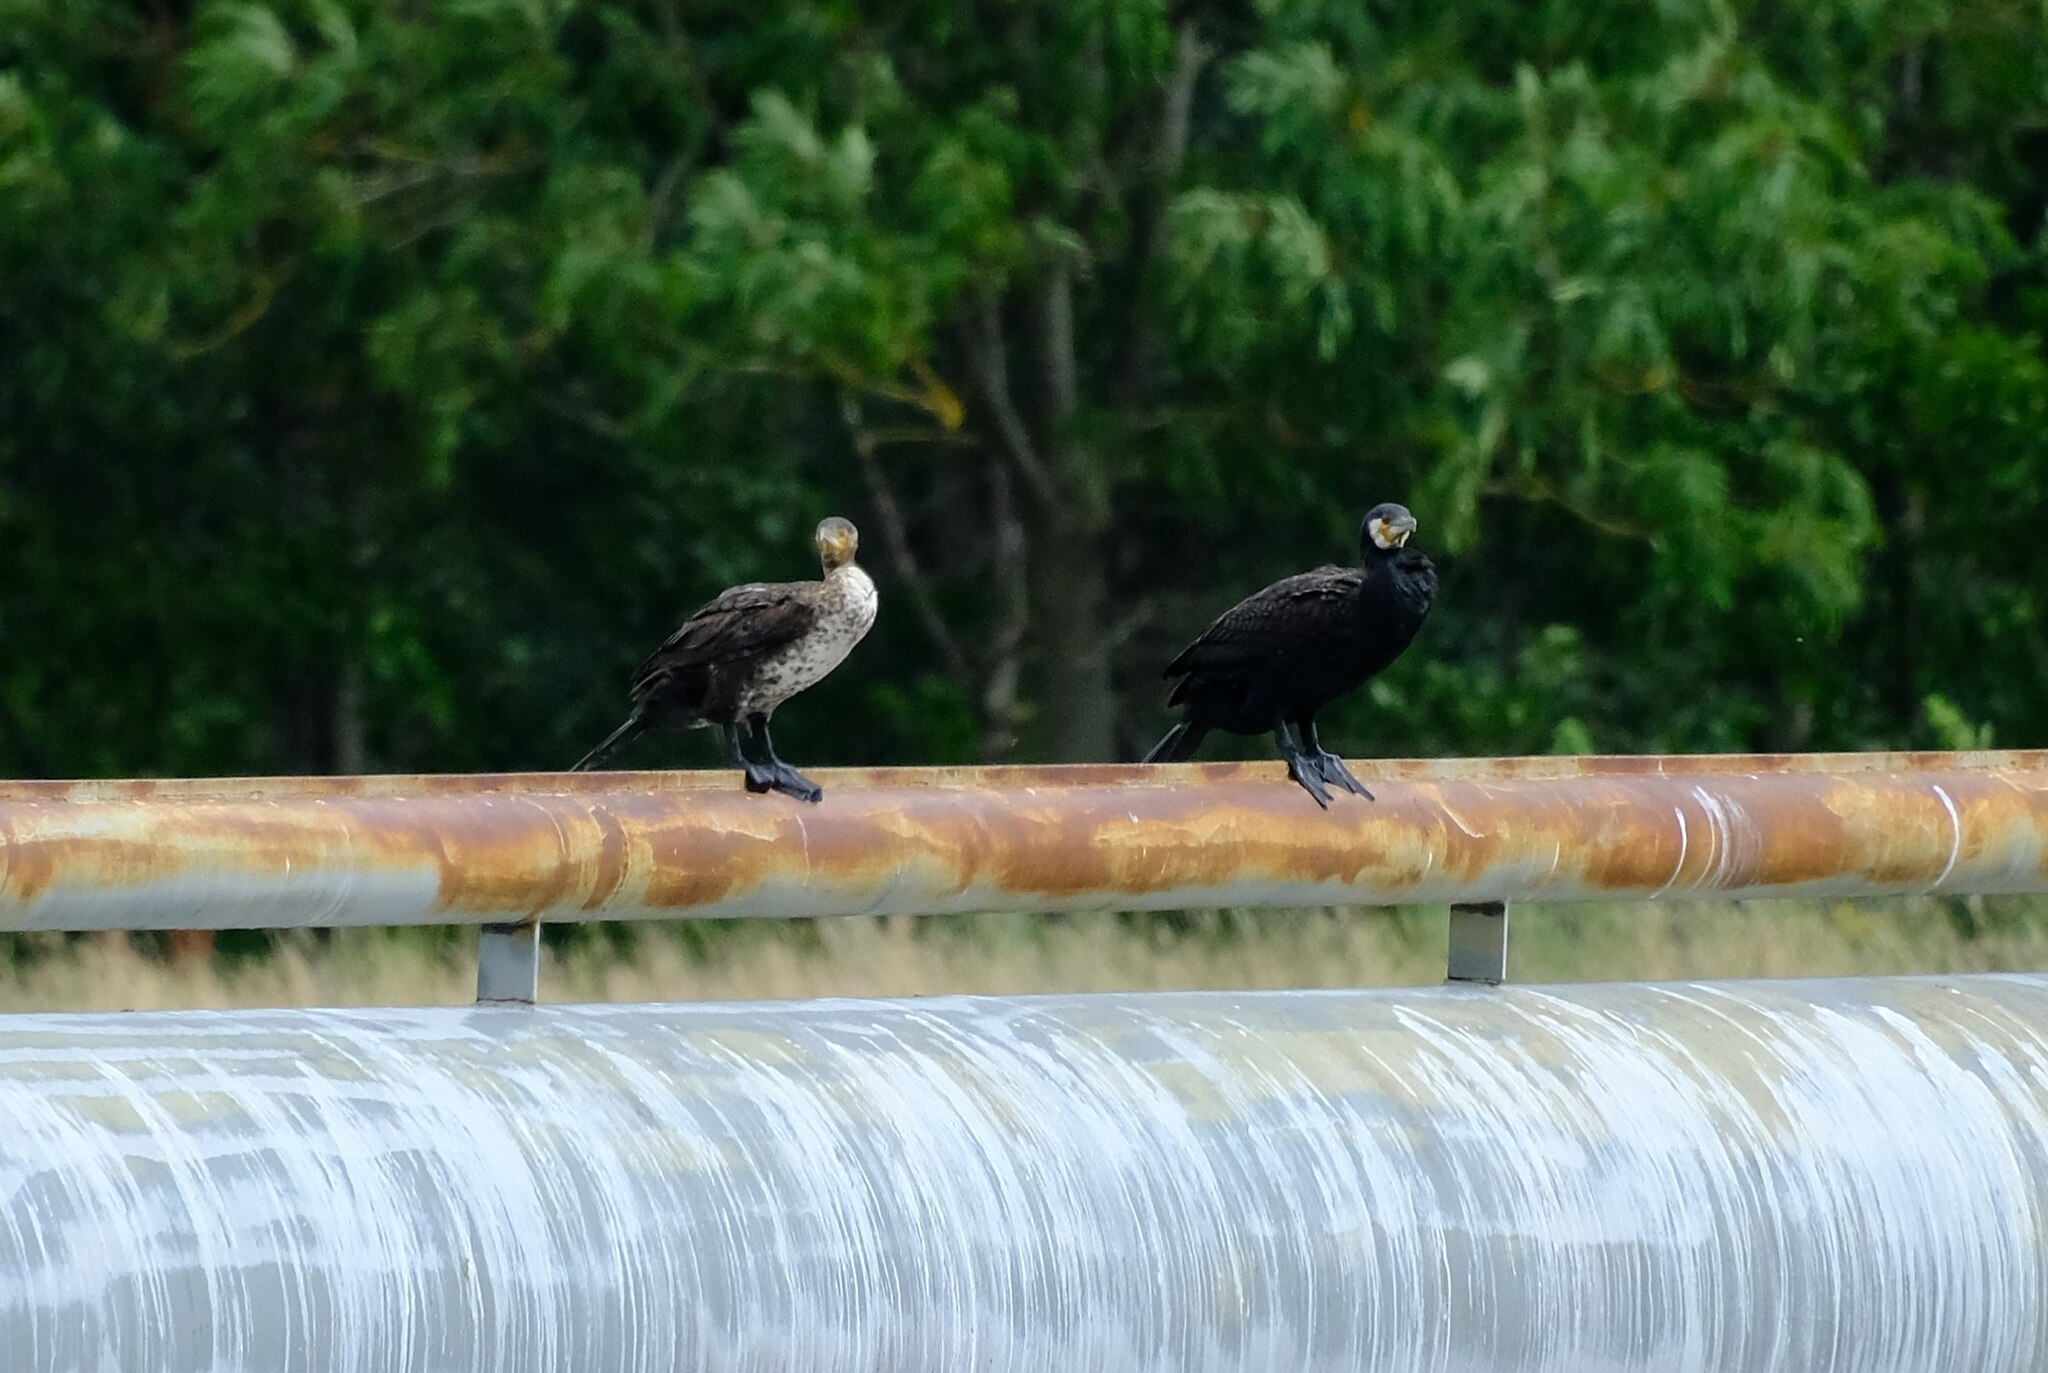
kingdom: Animalia
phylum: Chordata
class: Aves
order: Suliformes
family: Phalacrocoracidae
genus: Phalacrocorax
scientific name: Phalacrocorax carbo
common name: Great cormorant
